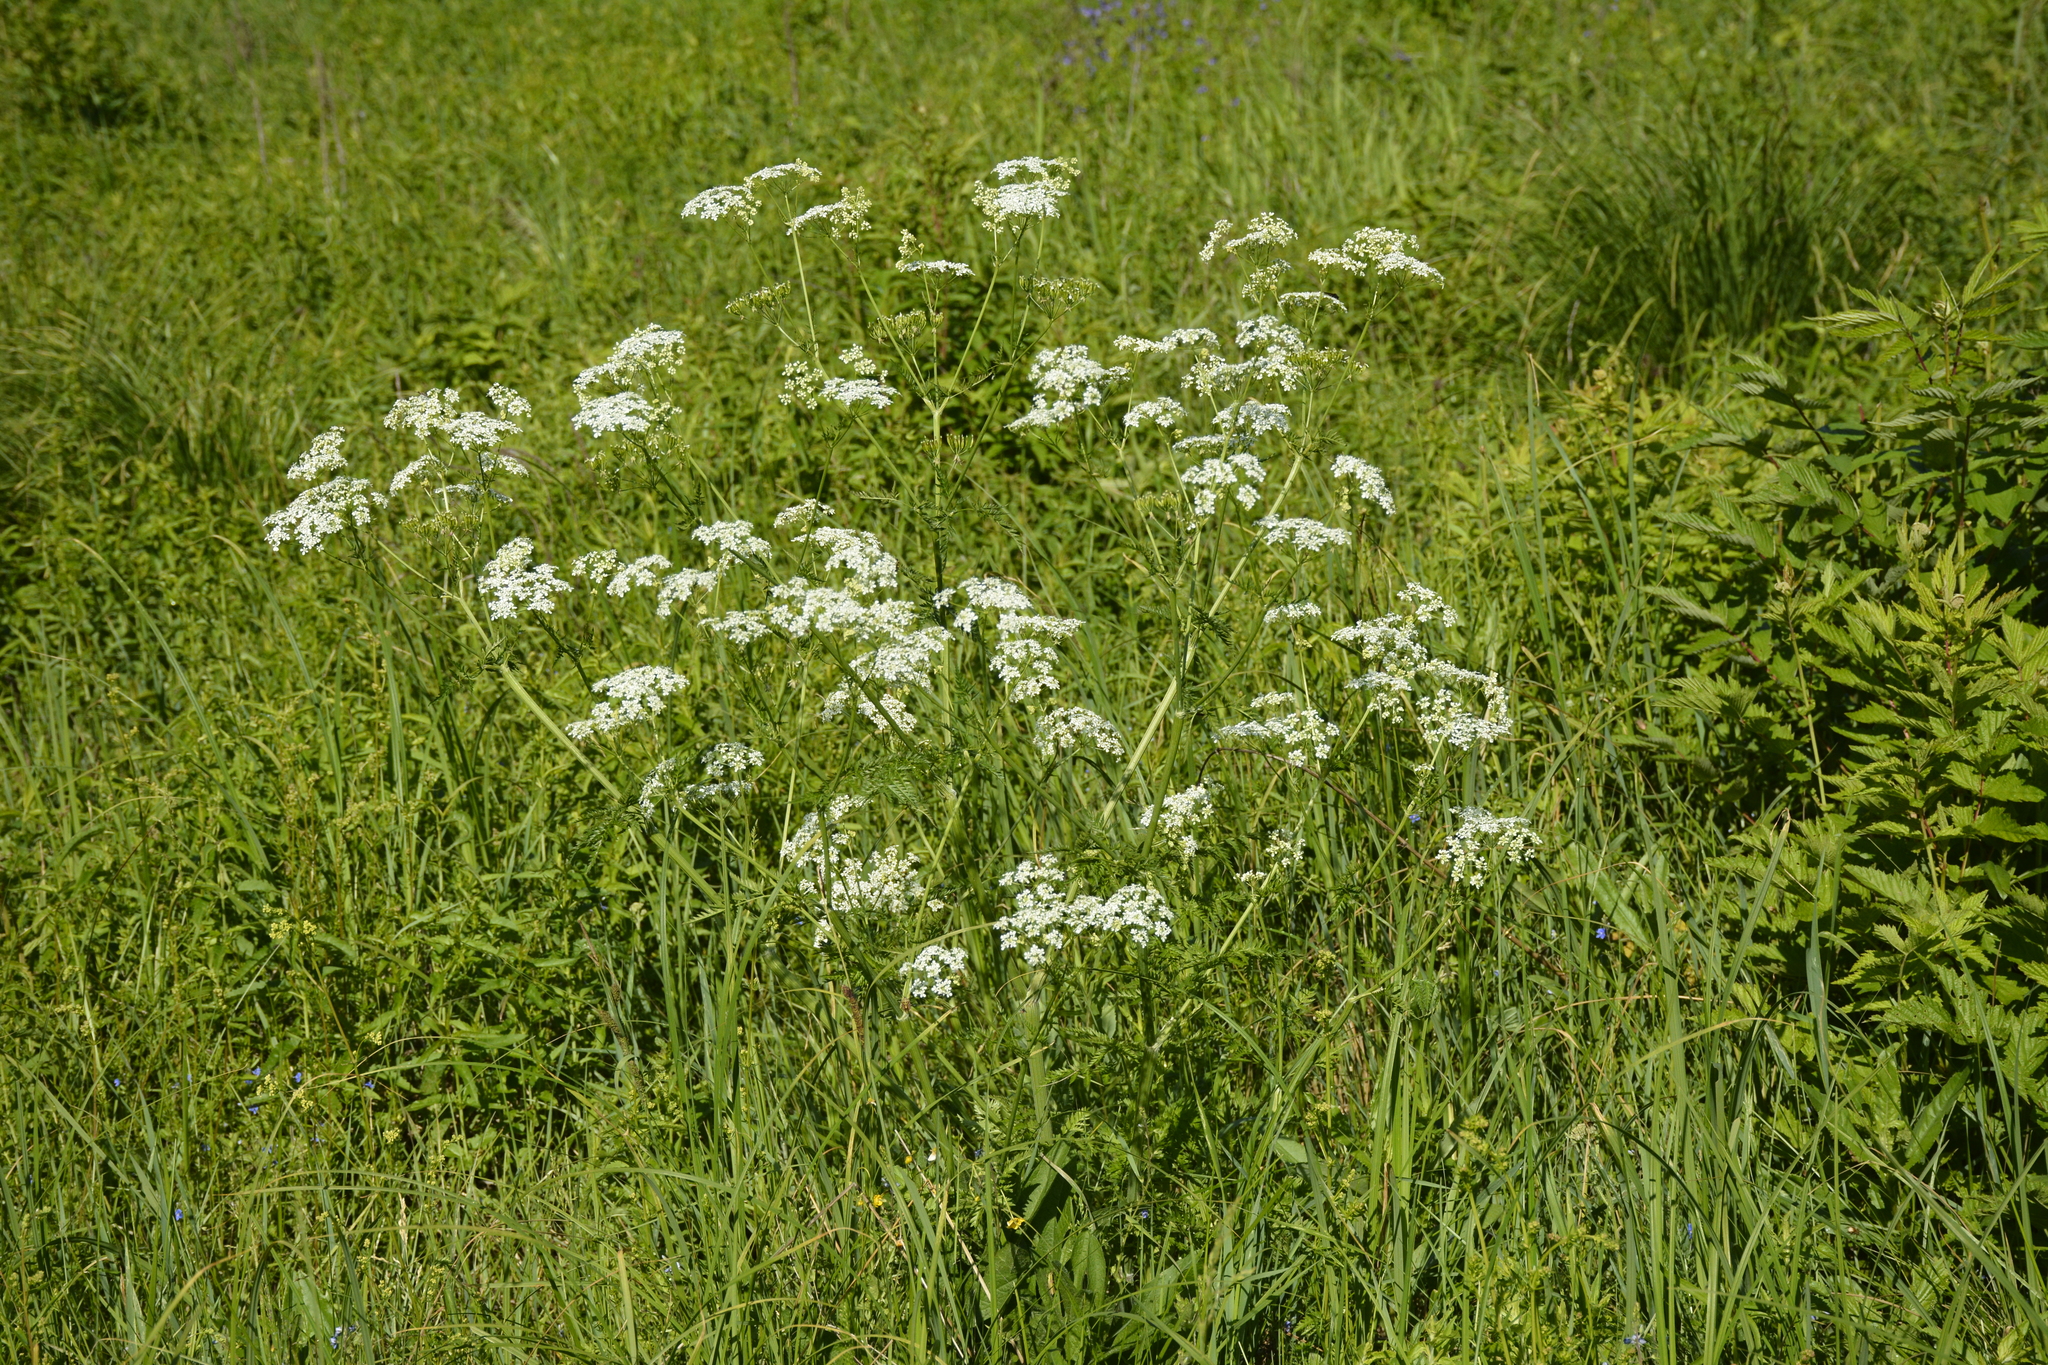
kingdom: Plantae
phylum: Tracheophyta
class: Magnoliopsida
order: Apiales
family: Apiaceae
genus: Anthriscus
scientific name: Anthriscus sylvestris
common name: Cow parsley
